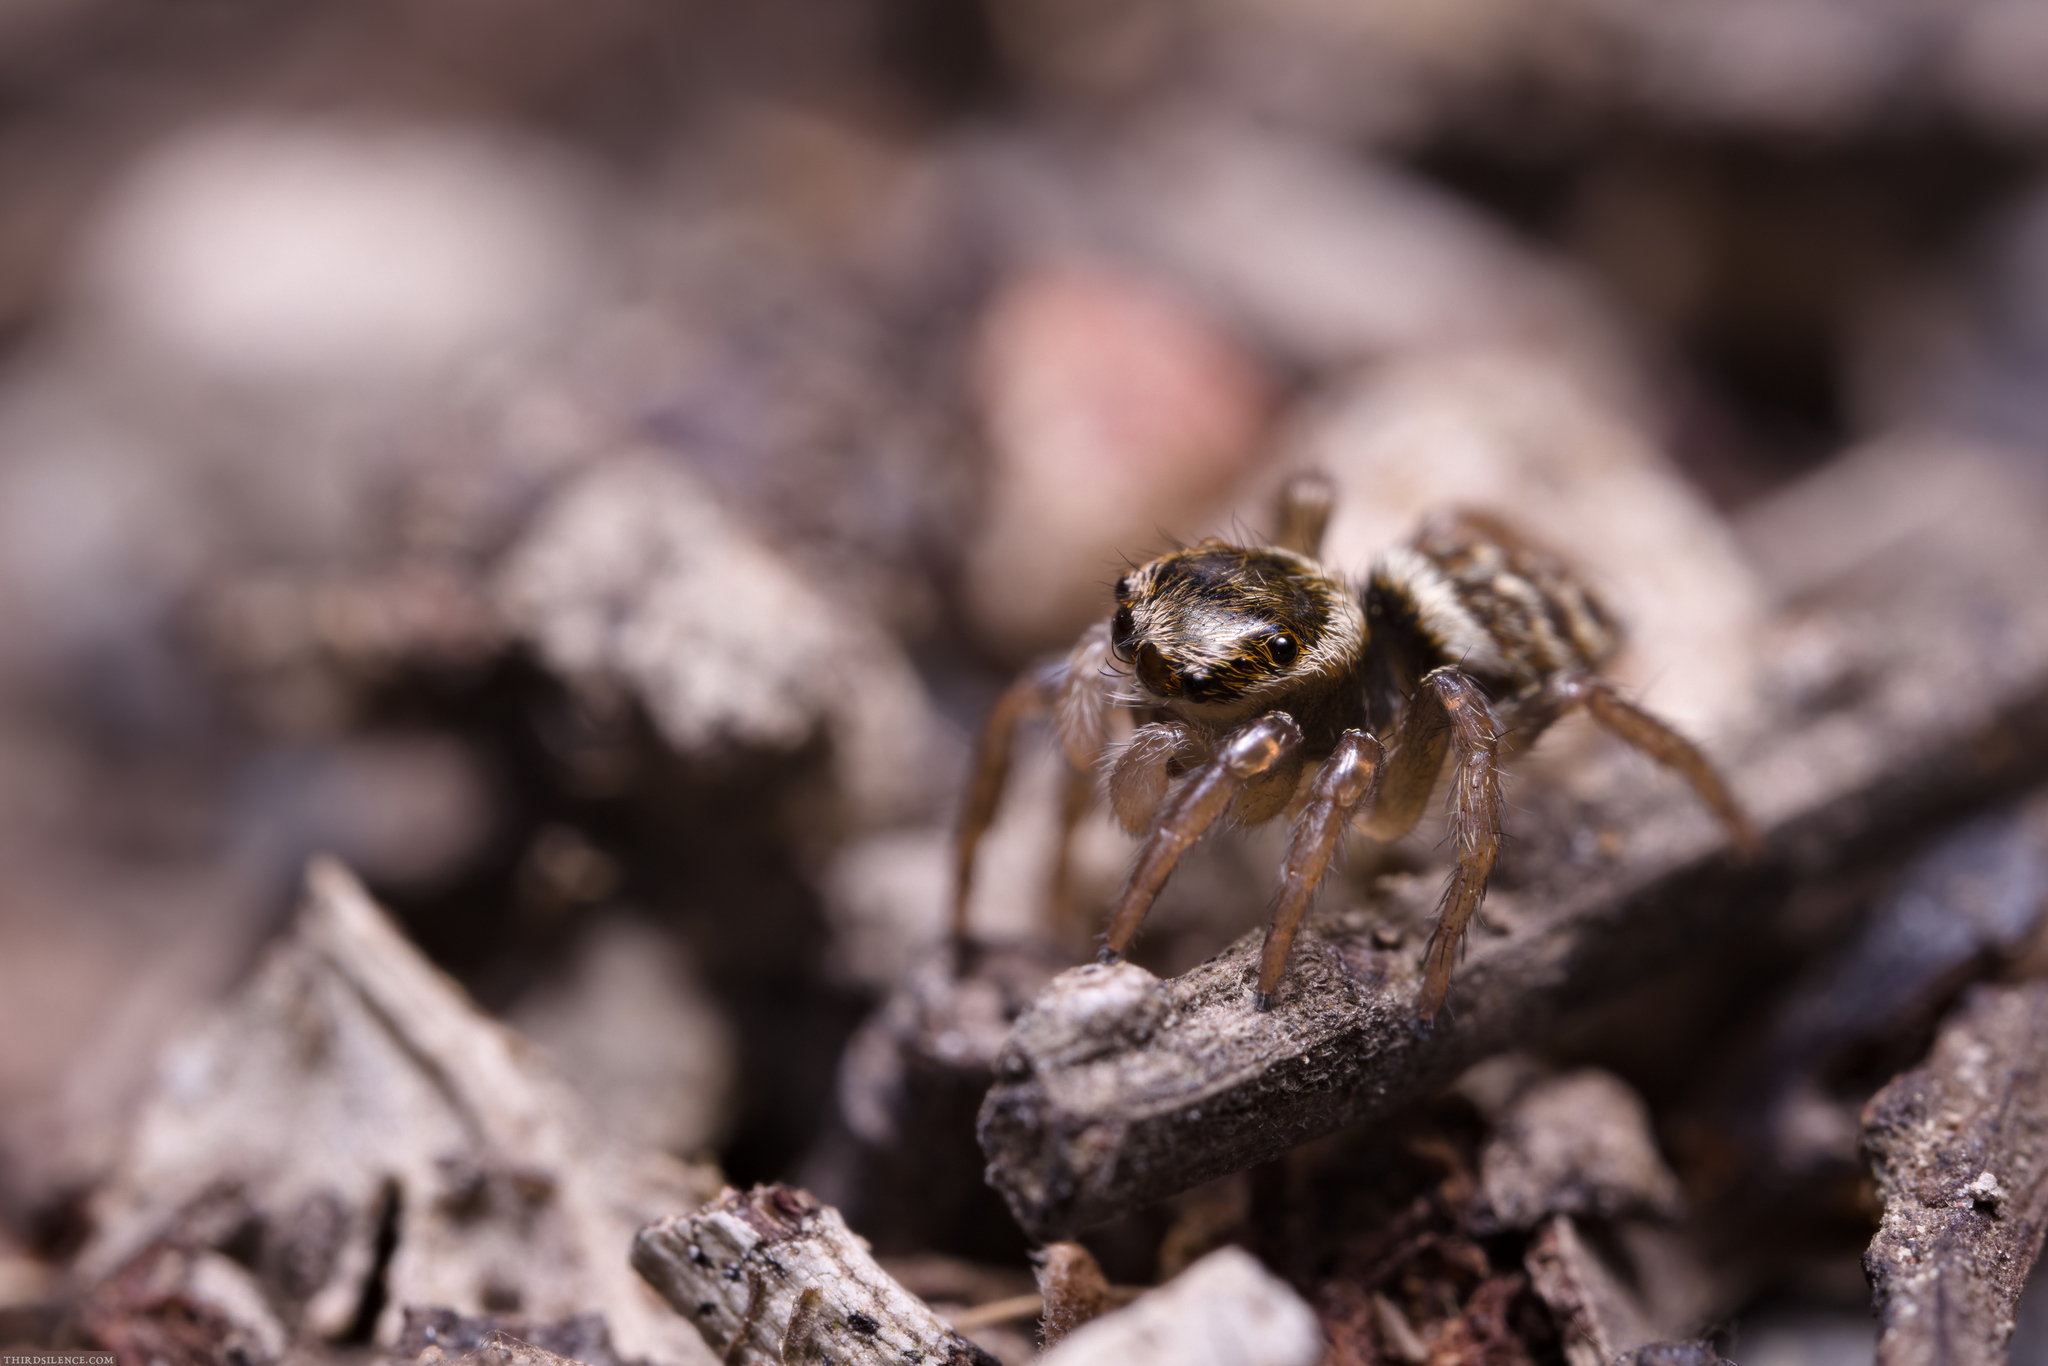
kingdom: Animalia
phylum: Arthropoda
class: Arachnida
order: Araneae
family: Salticidae
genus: Maratus
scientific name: Maratus griseus
